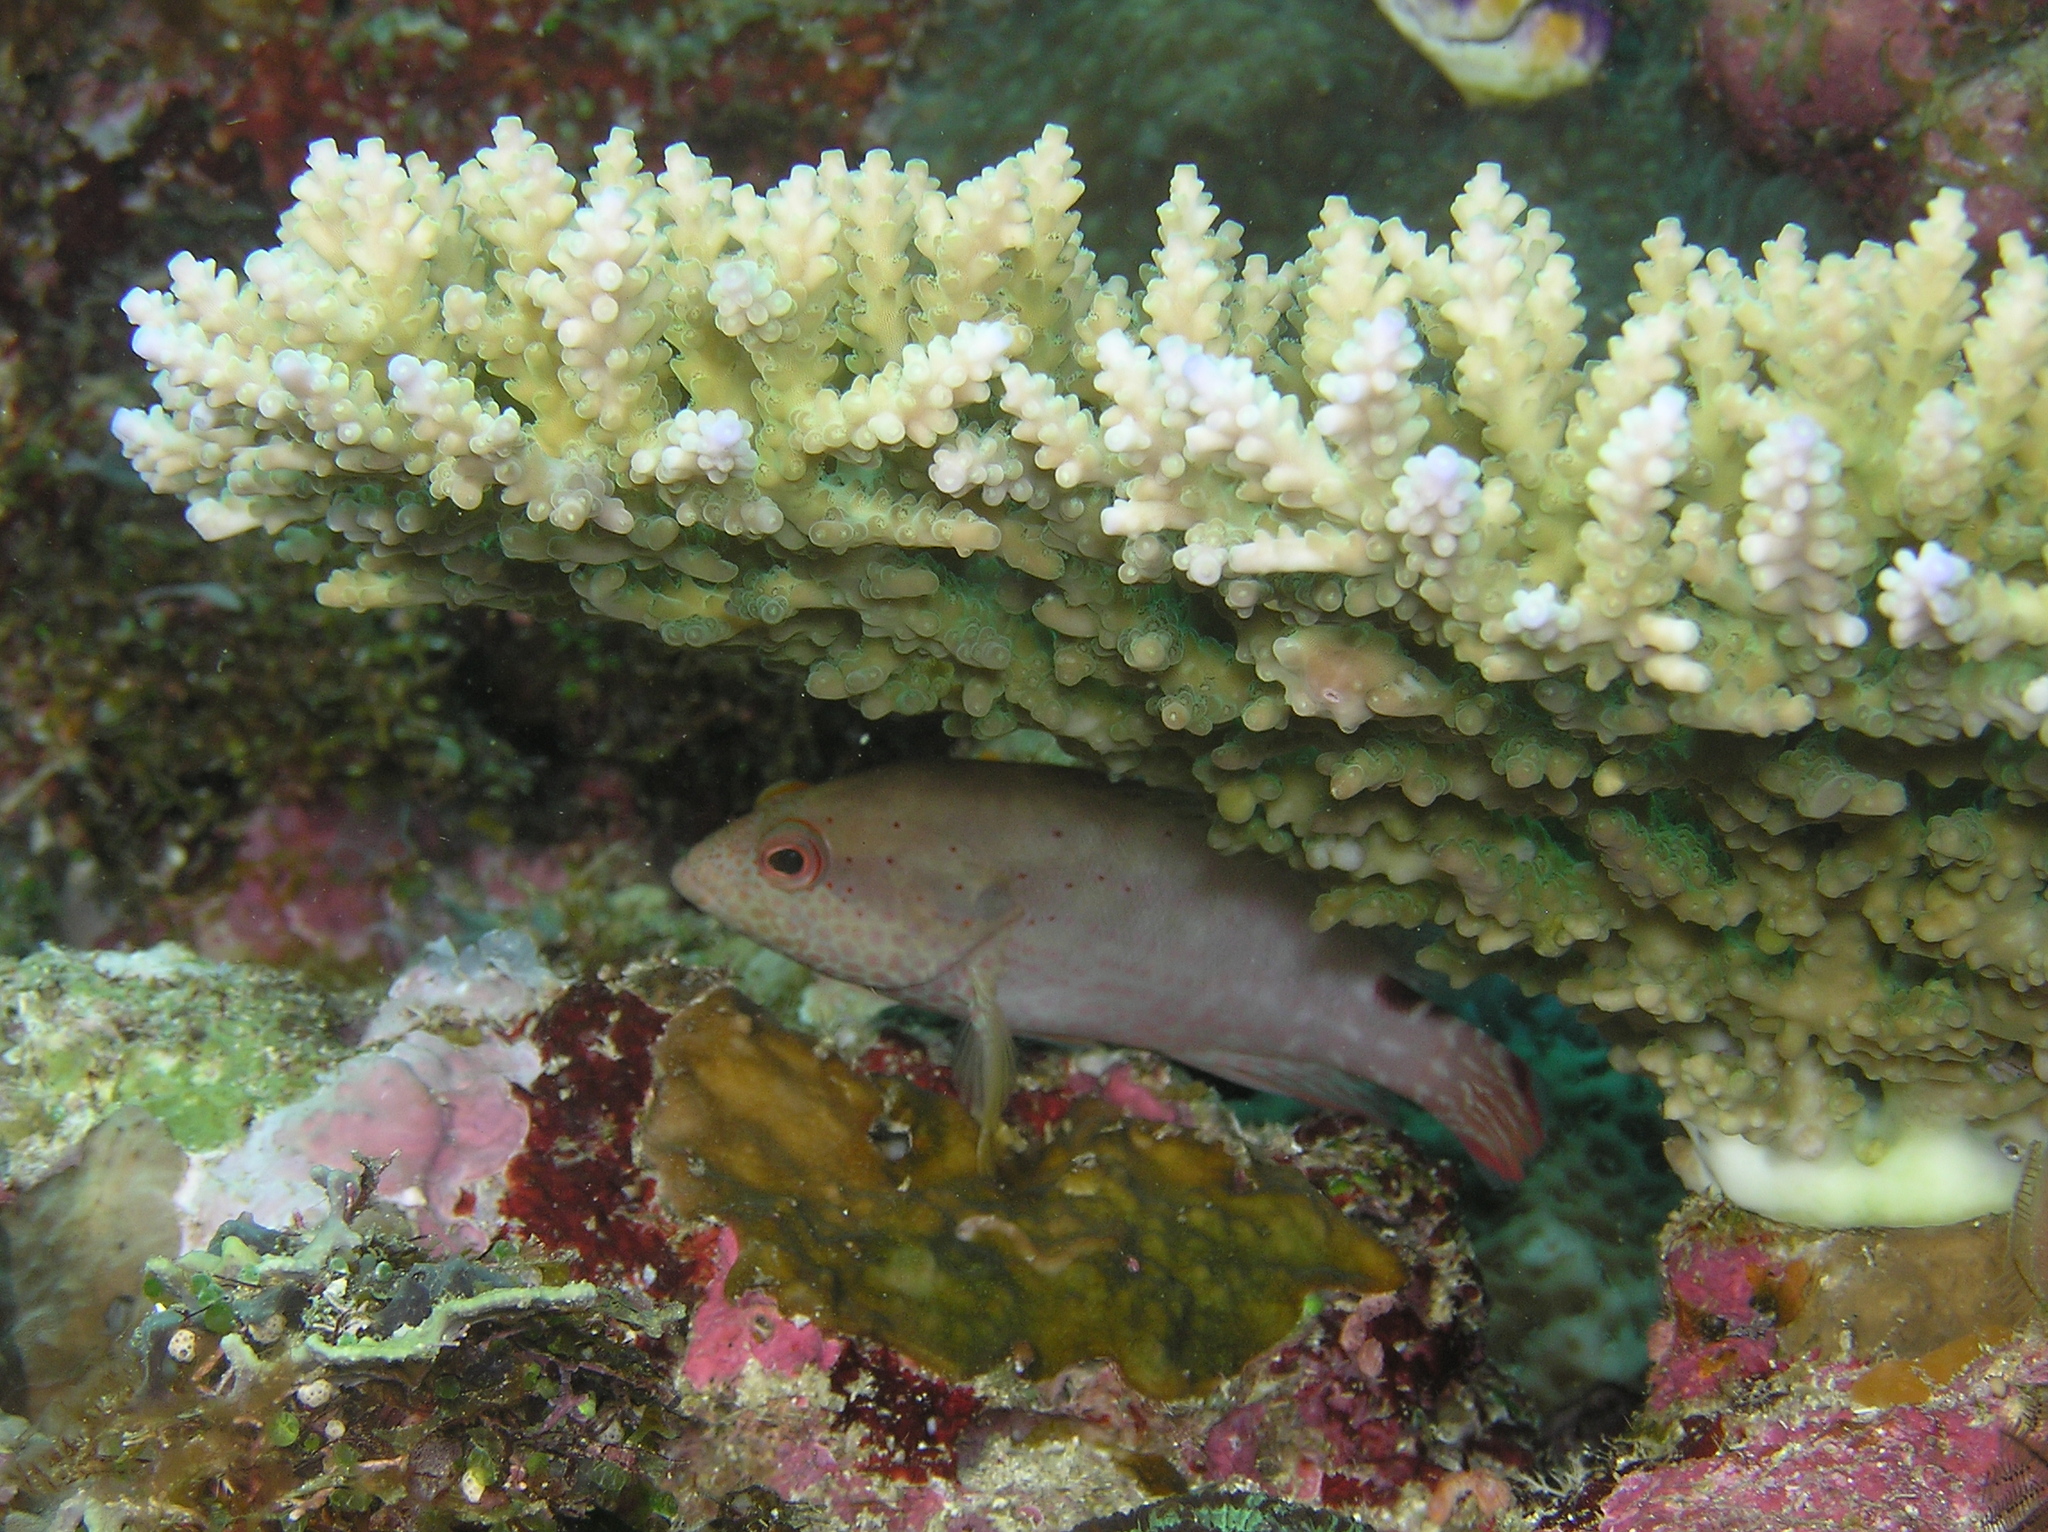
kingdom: Animalia
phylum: Chordata
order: Perciformes
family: Serranidae
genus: Cephalopholis
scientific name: Cephalopholis leopardus
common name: Leopard hind
